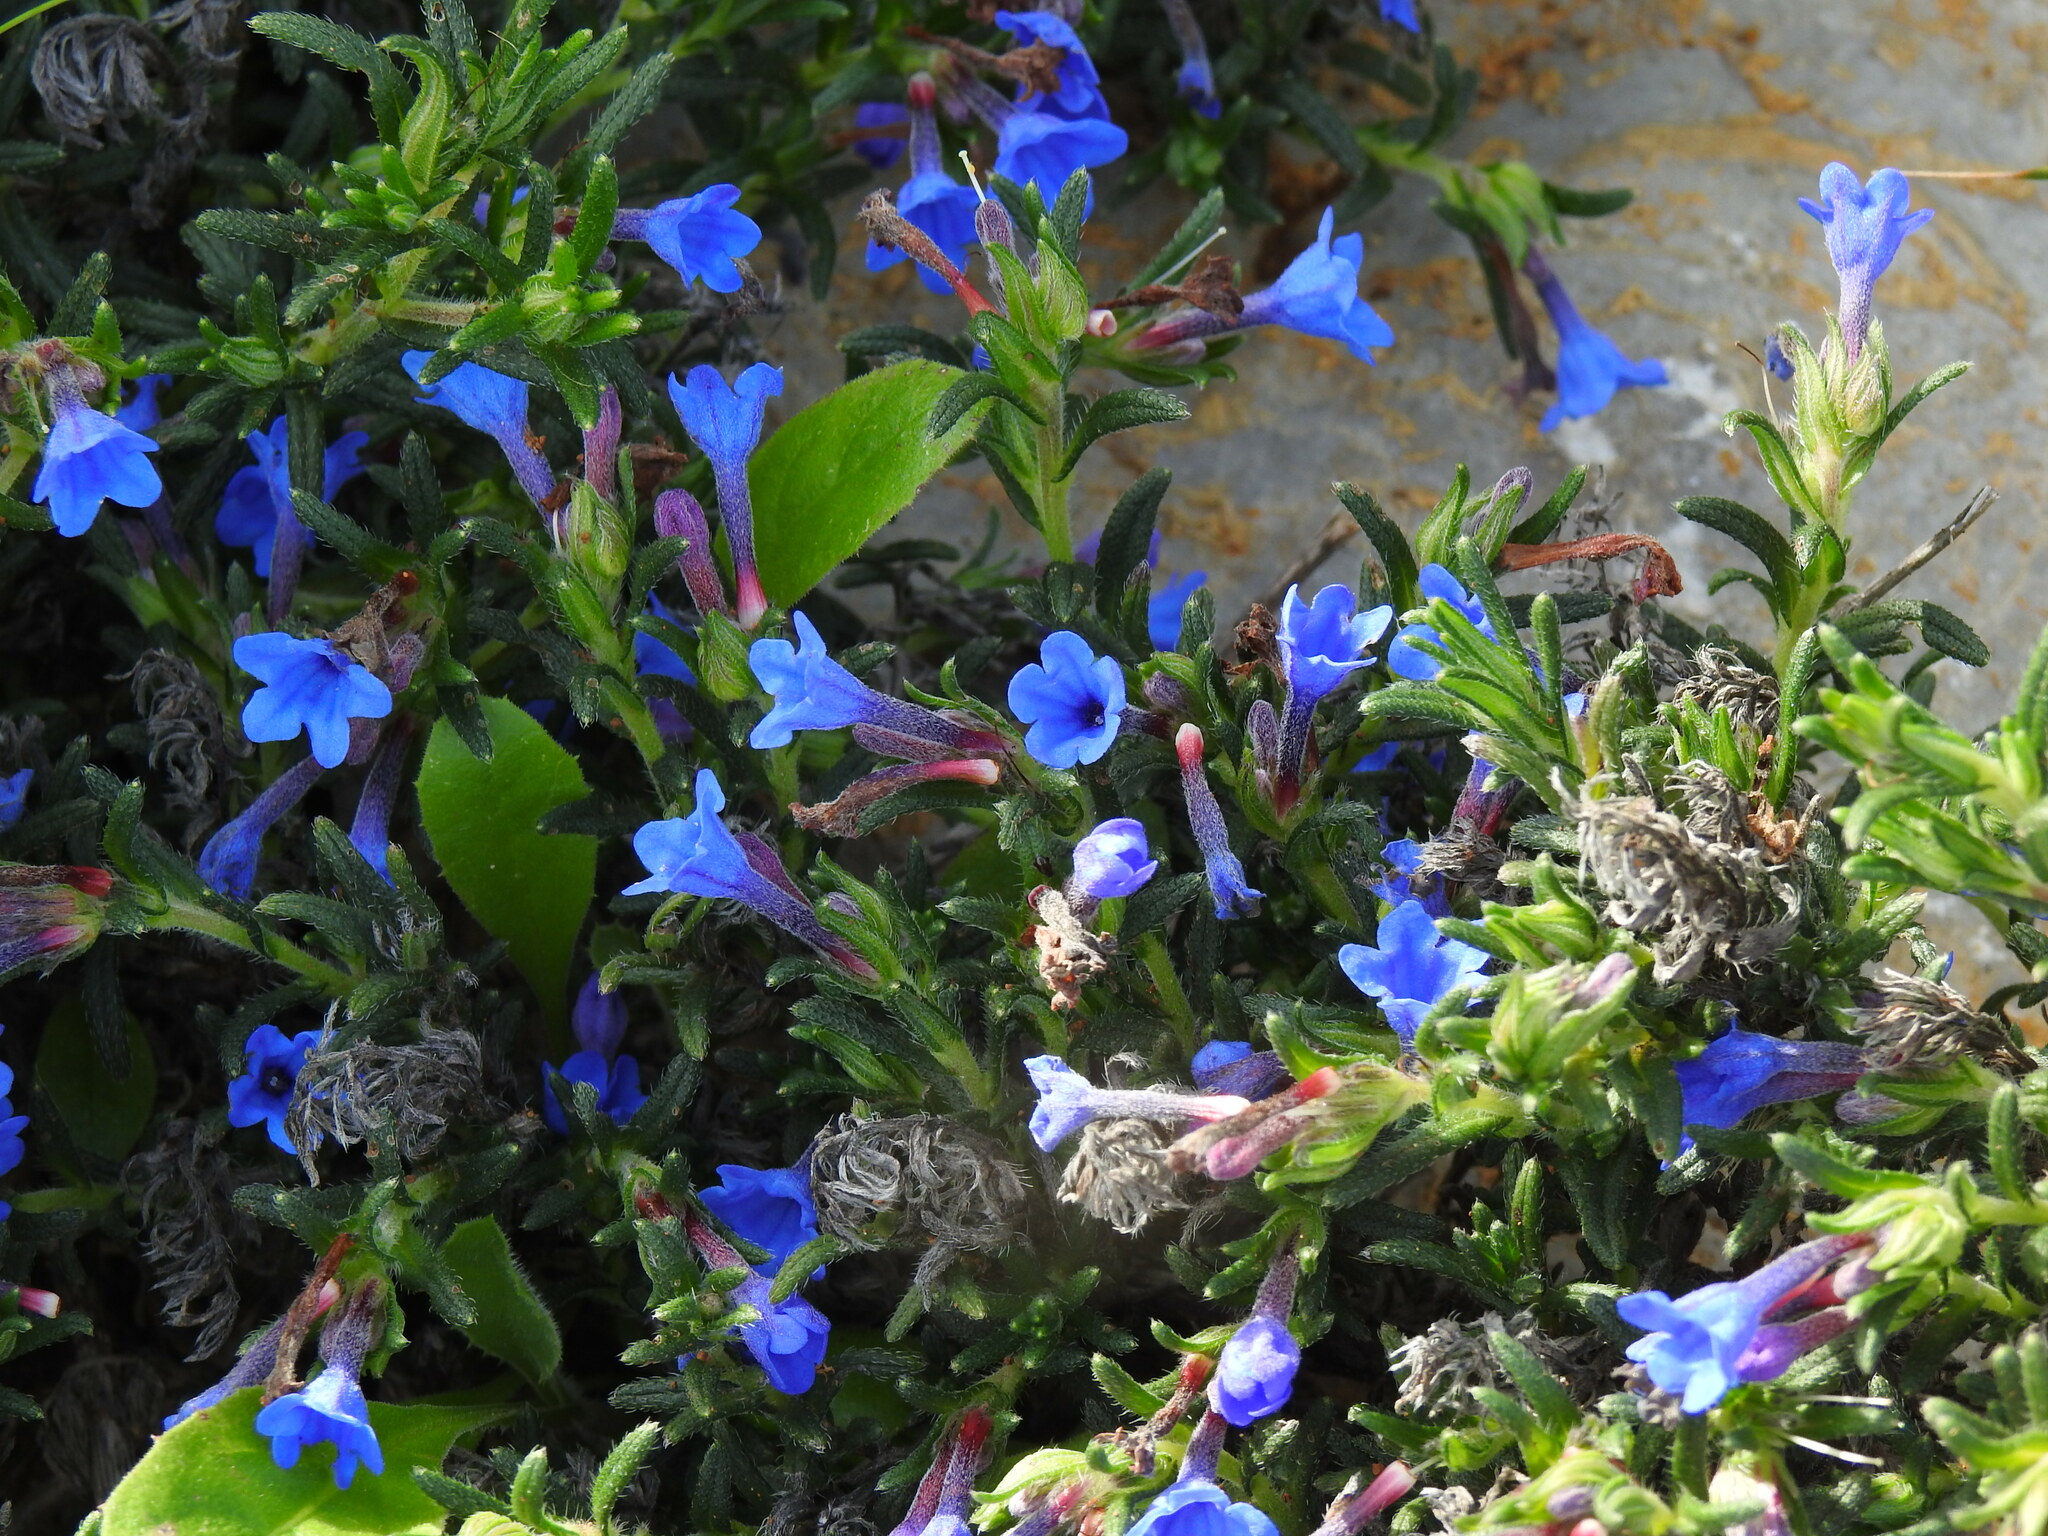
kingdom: Plantae
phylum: Tracheophyta
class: Magnoliopsida
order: Boraginales
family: Boraginaceae
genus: Glandora
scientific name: Glandora prostrata
